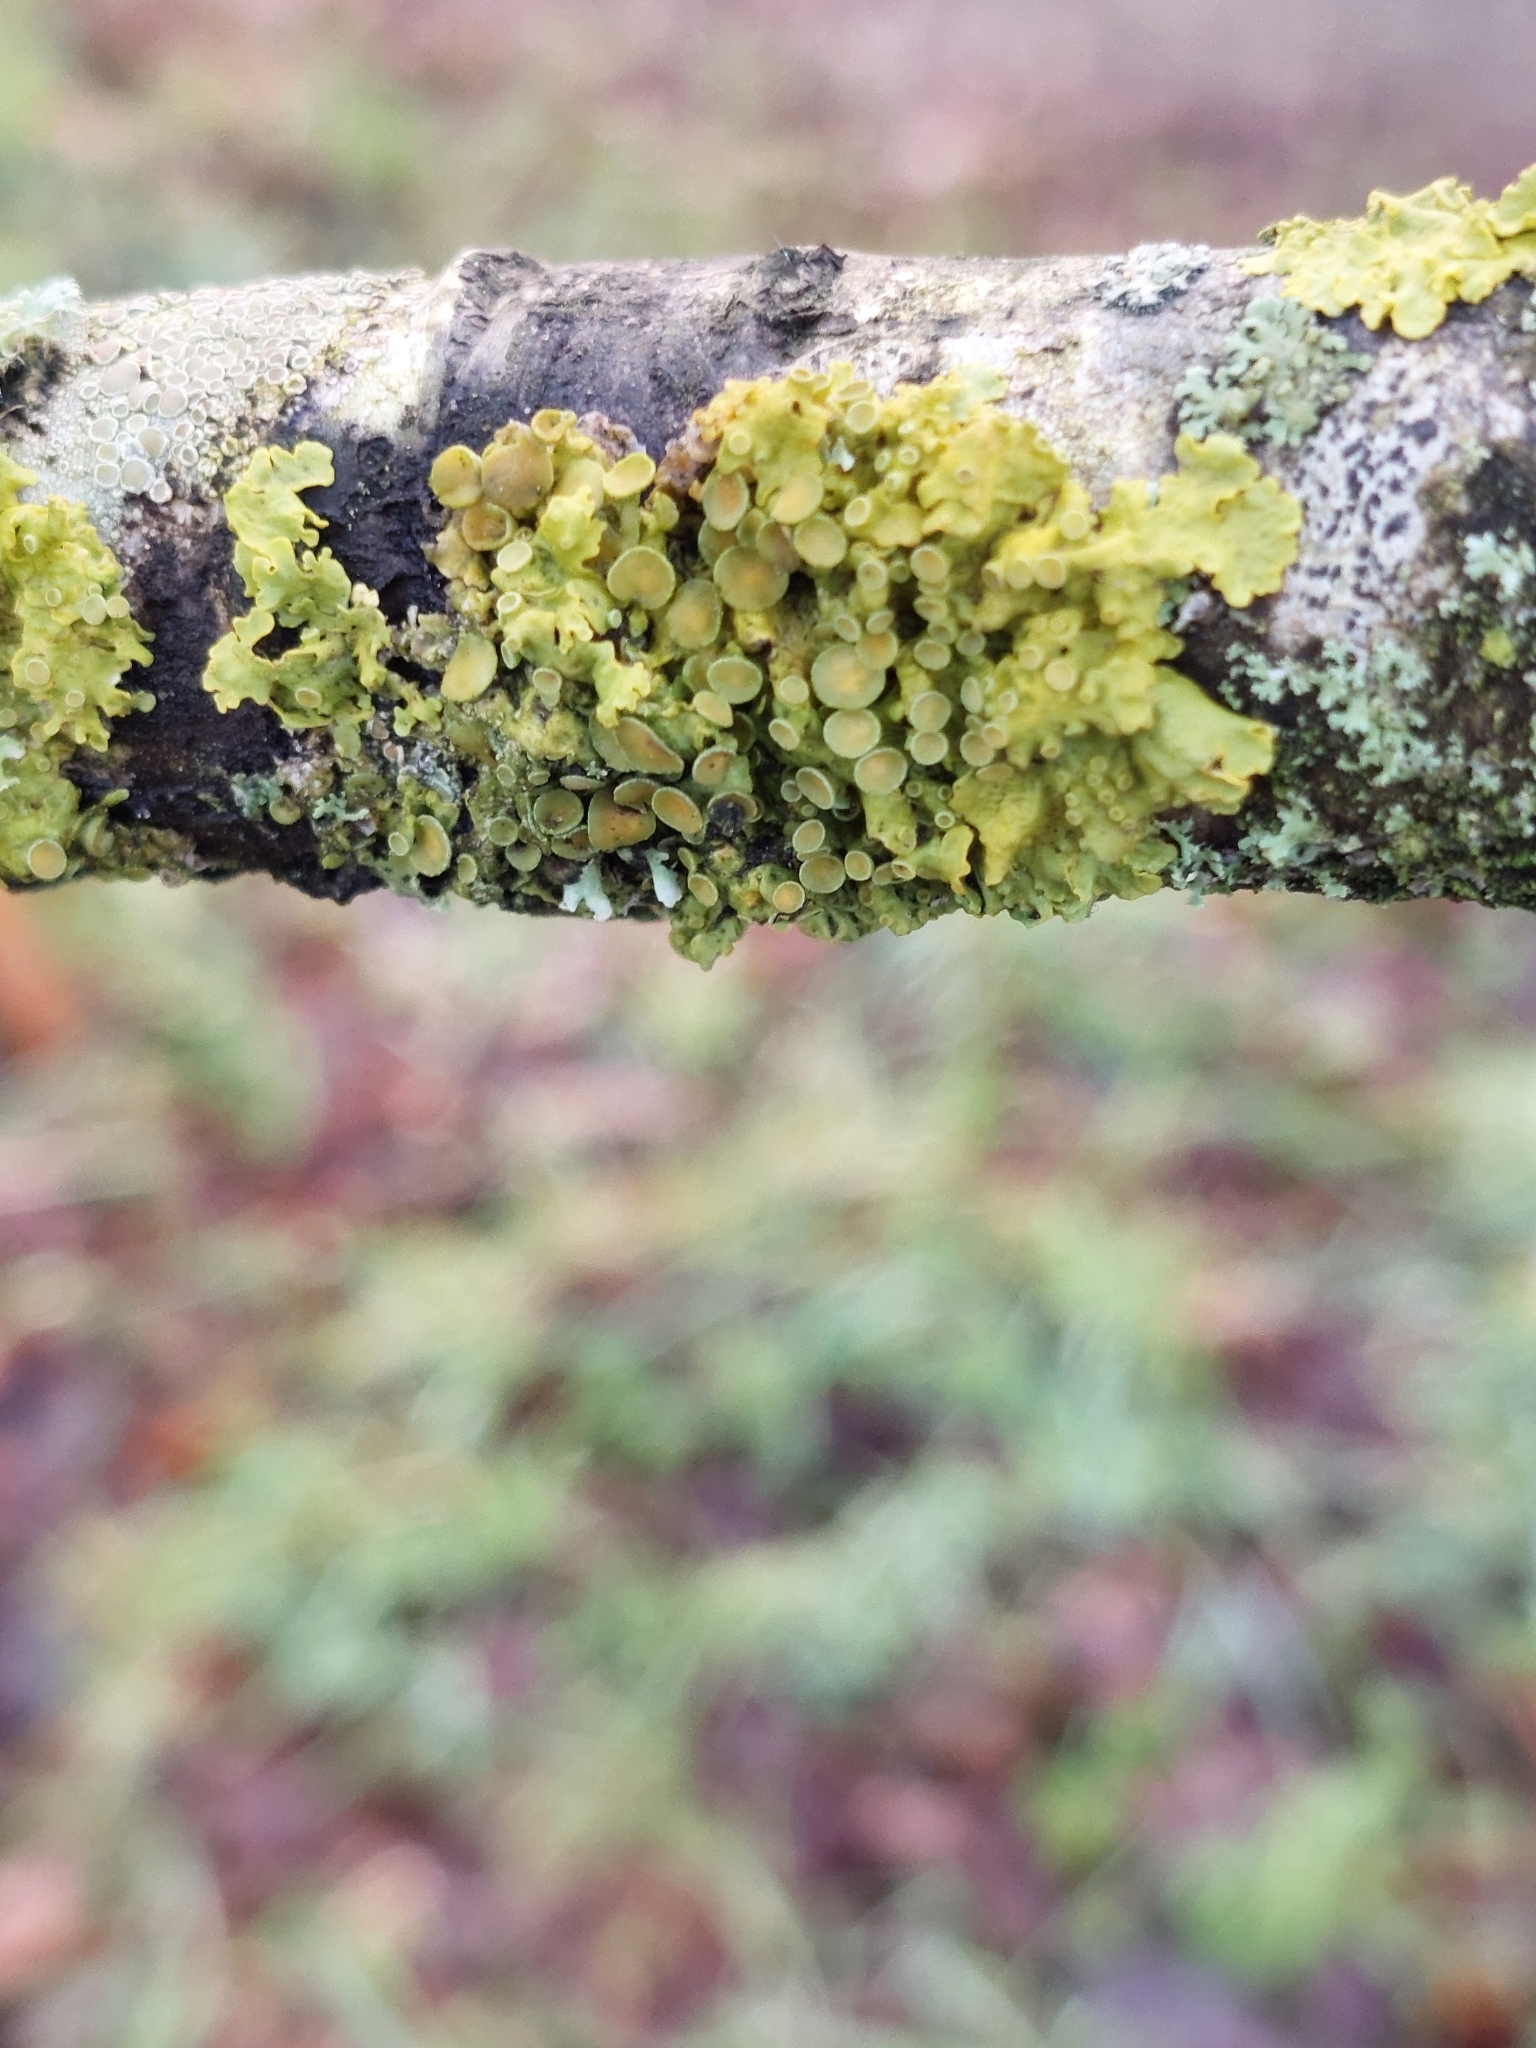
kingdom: Fungi
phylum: Ascomycota
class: Lecanoromycetes
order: Teloschistales
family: Teloschistaceae
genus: Xanthoria
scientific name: Xanthoria parietina
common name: Common orange lichen
